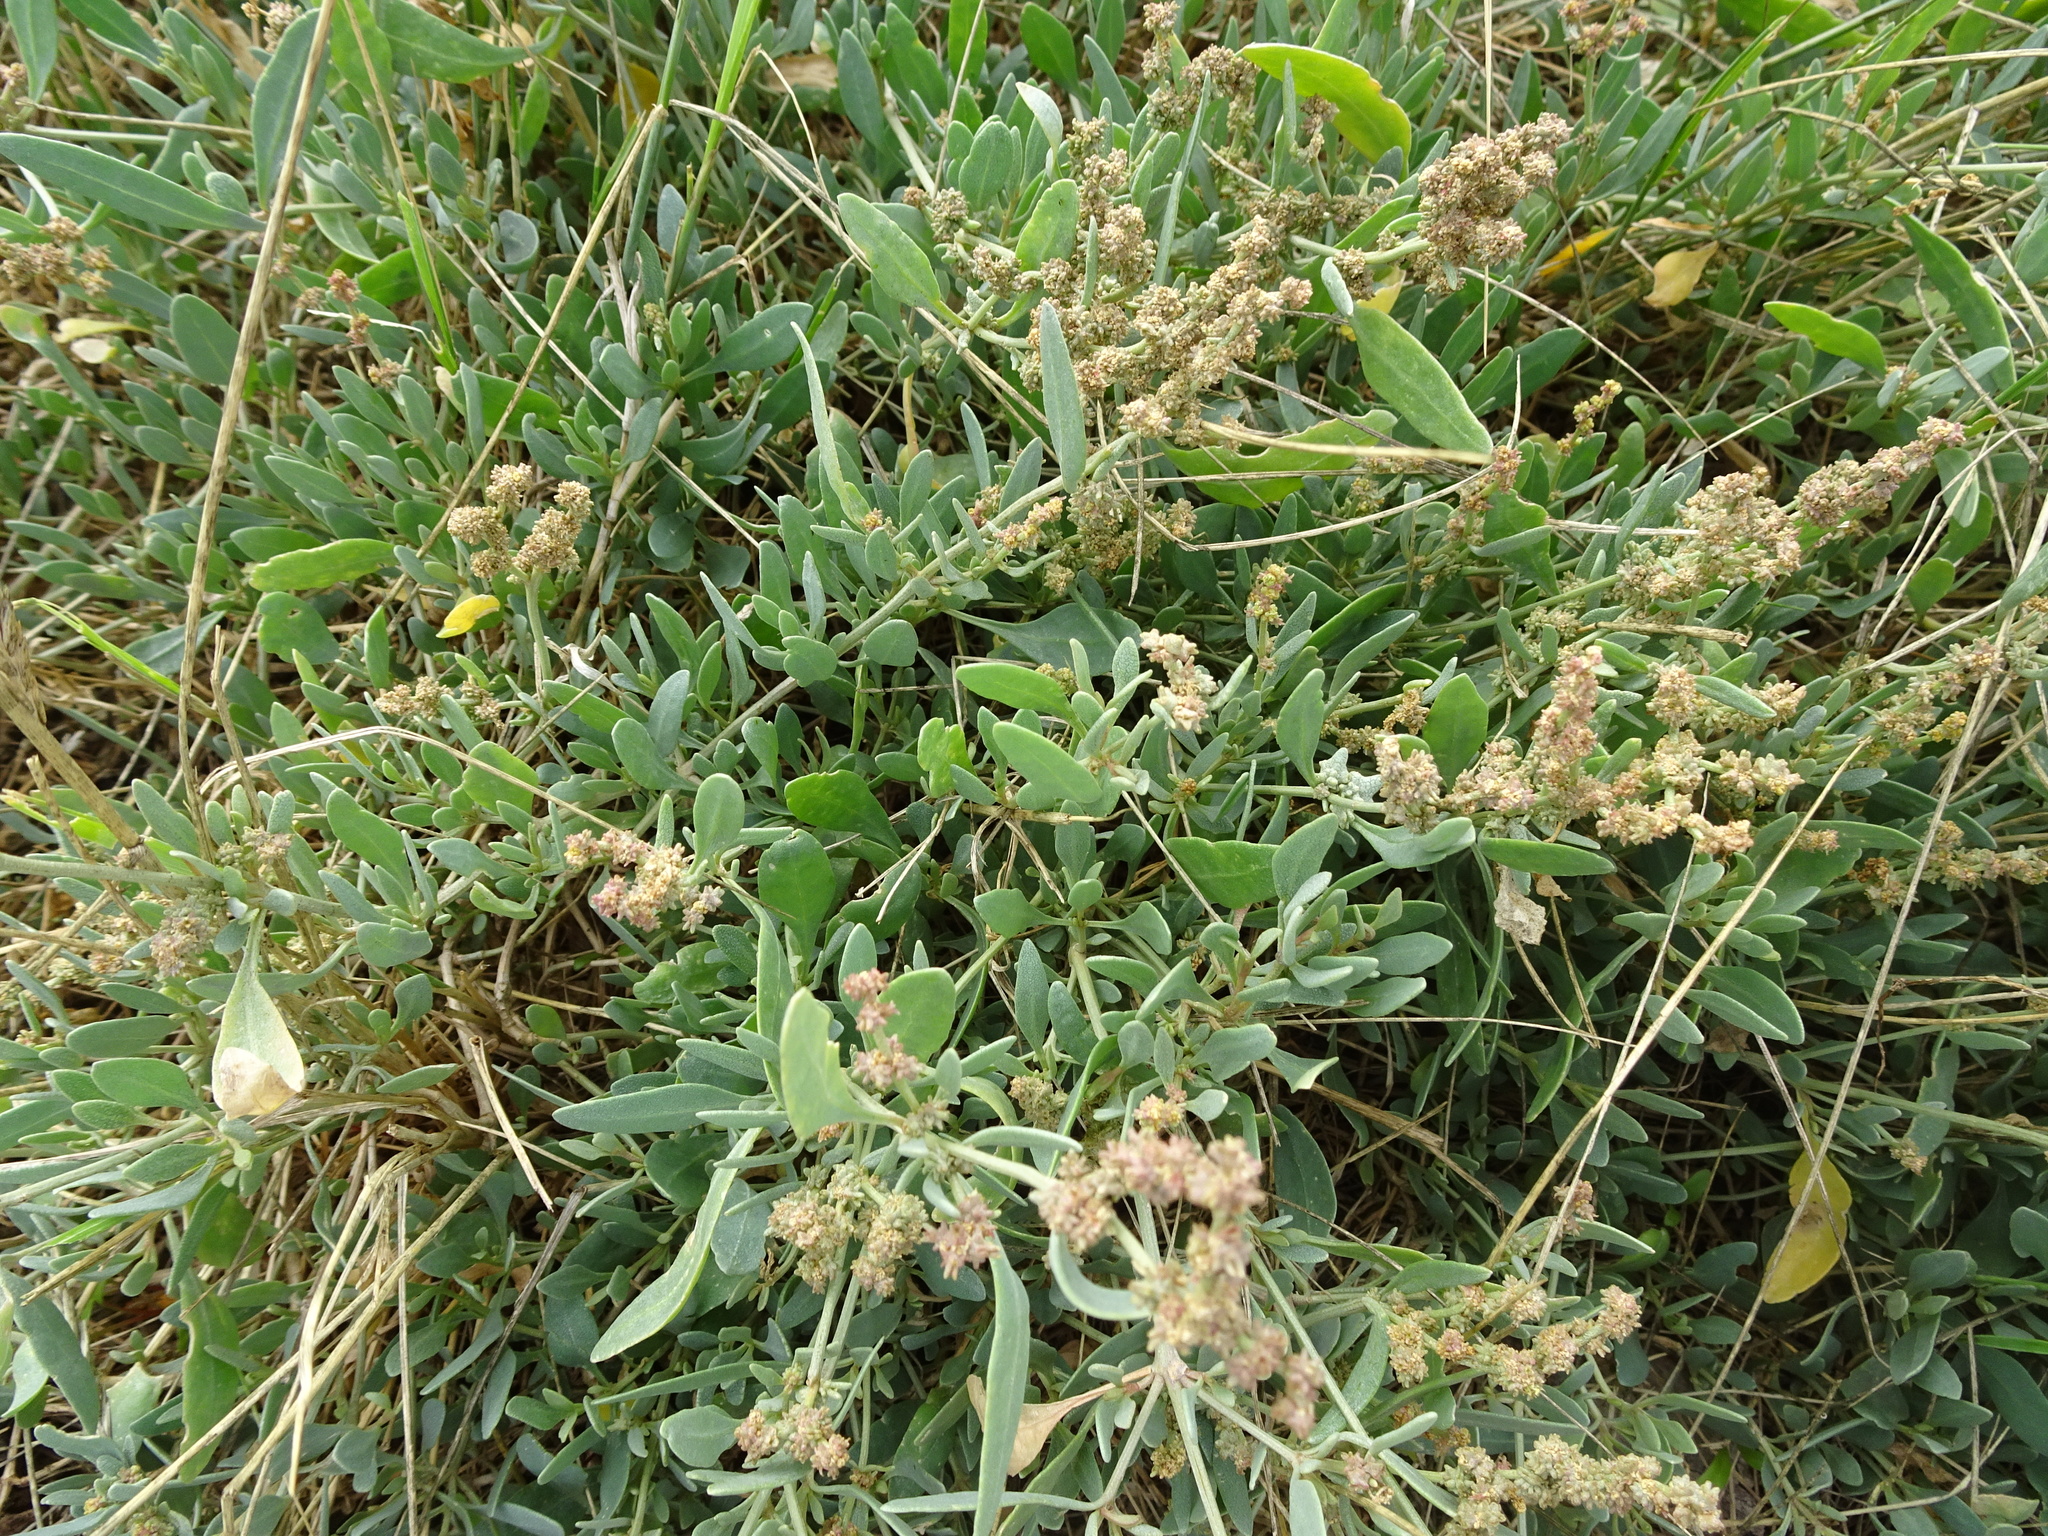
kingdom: Plantae
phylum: Tracheophyta
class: Magnoliopsida
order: Caryophyllales
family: Amaranthaceae
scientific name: Amaranthaceae
